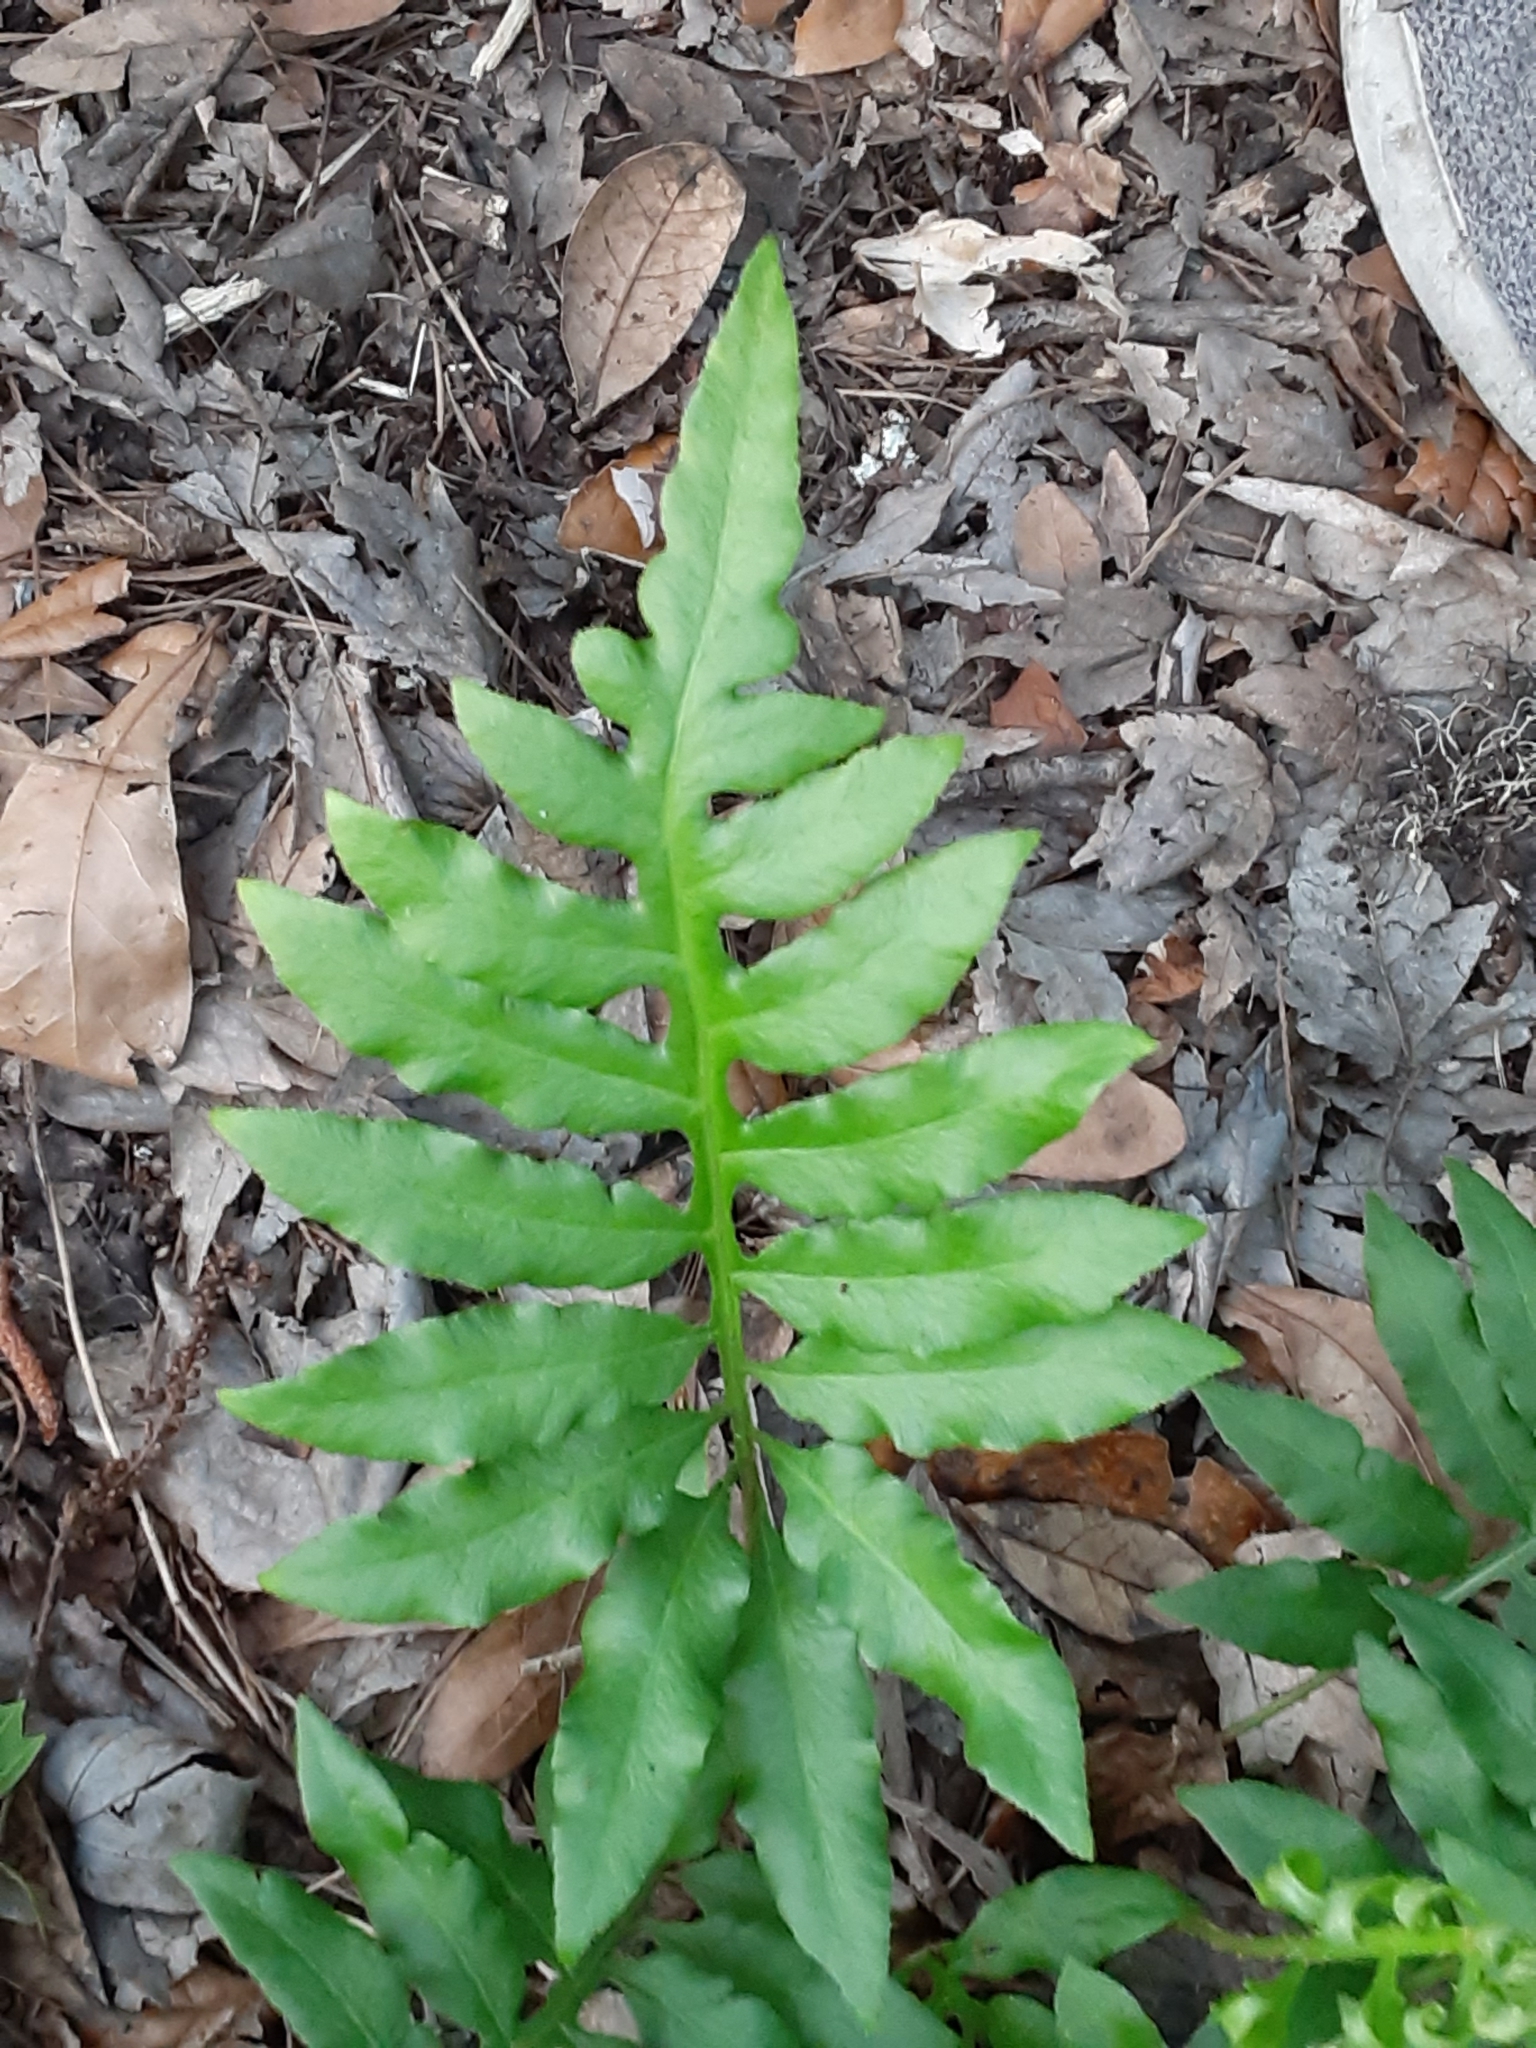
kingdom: Plantae
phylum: Tracheophyta
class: Polypodiopsida
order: Polypodiales
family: Blechnaceae
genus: Lorinseria
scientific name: Lorinseria areolata
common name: Dwarf chain fern
